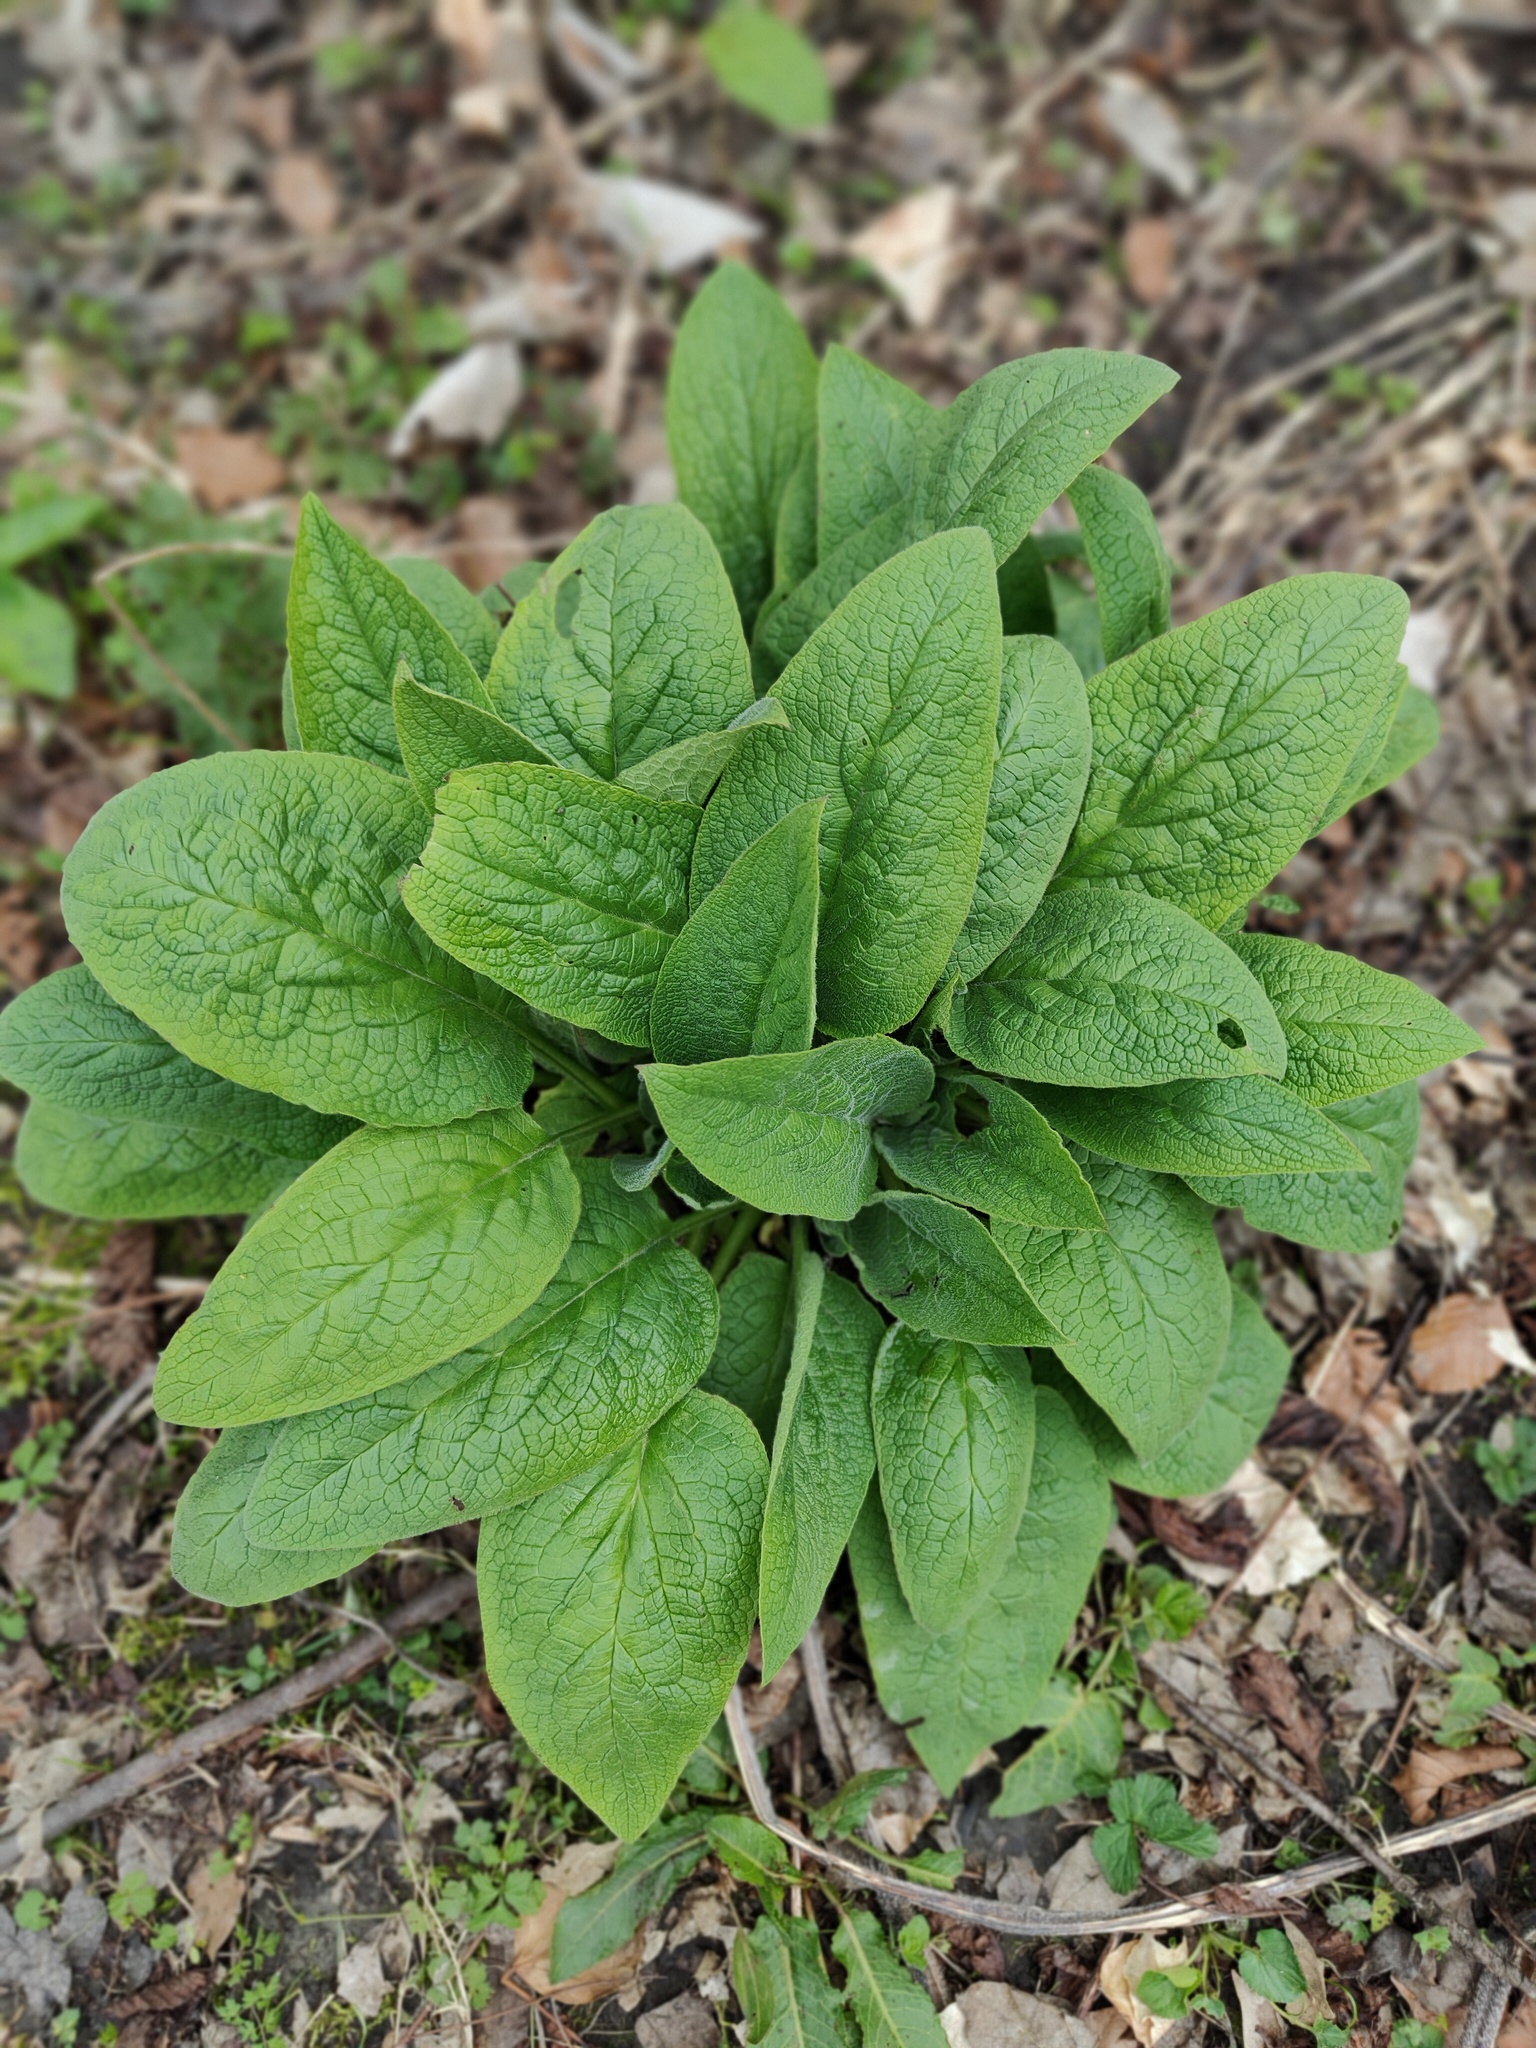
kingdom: Plantae
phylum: Tracheophyta
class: Magnoliopsida
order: Lamiales
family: Plantaginaceae
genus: Digitalis
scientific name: Digitalis purpurea
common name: Foxglove
